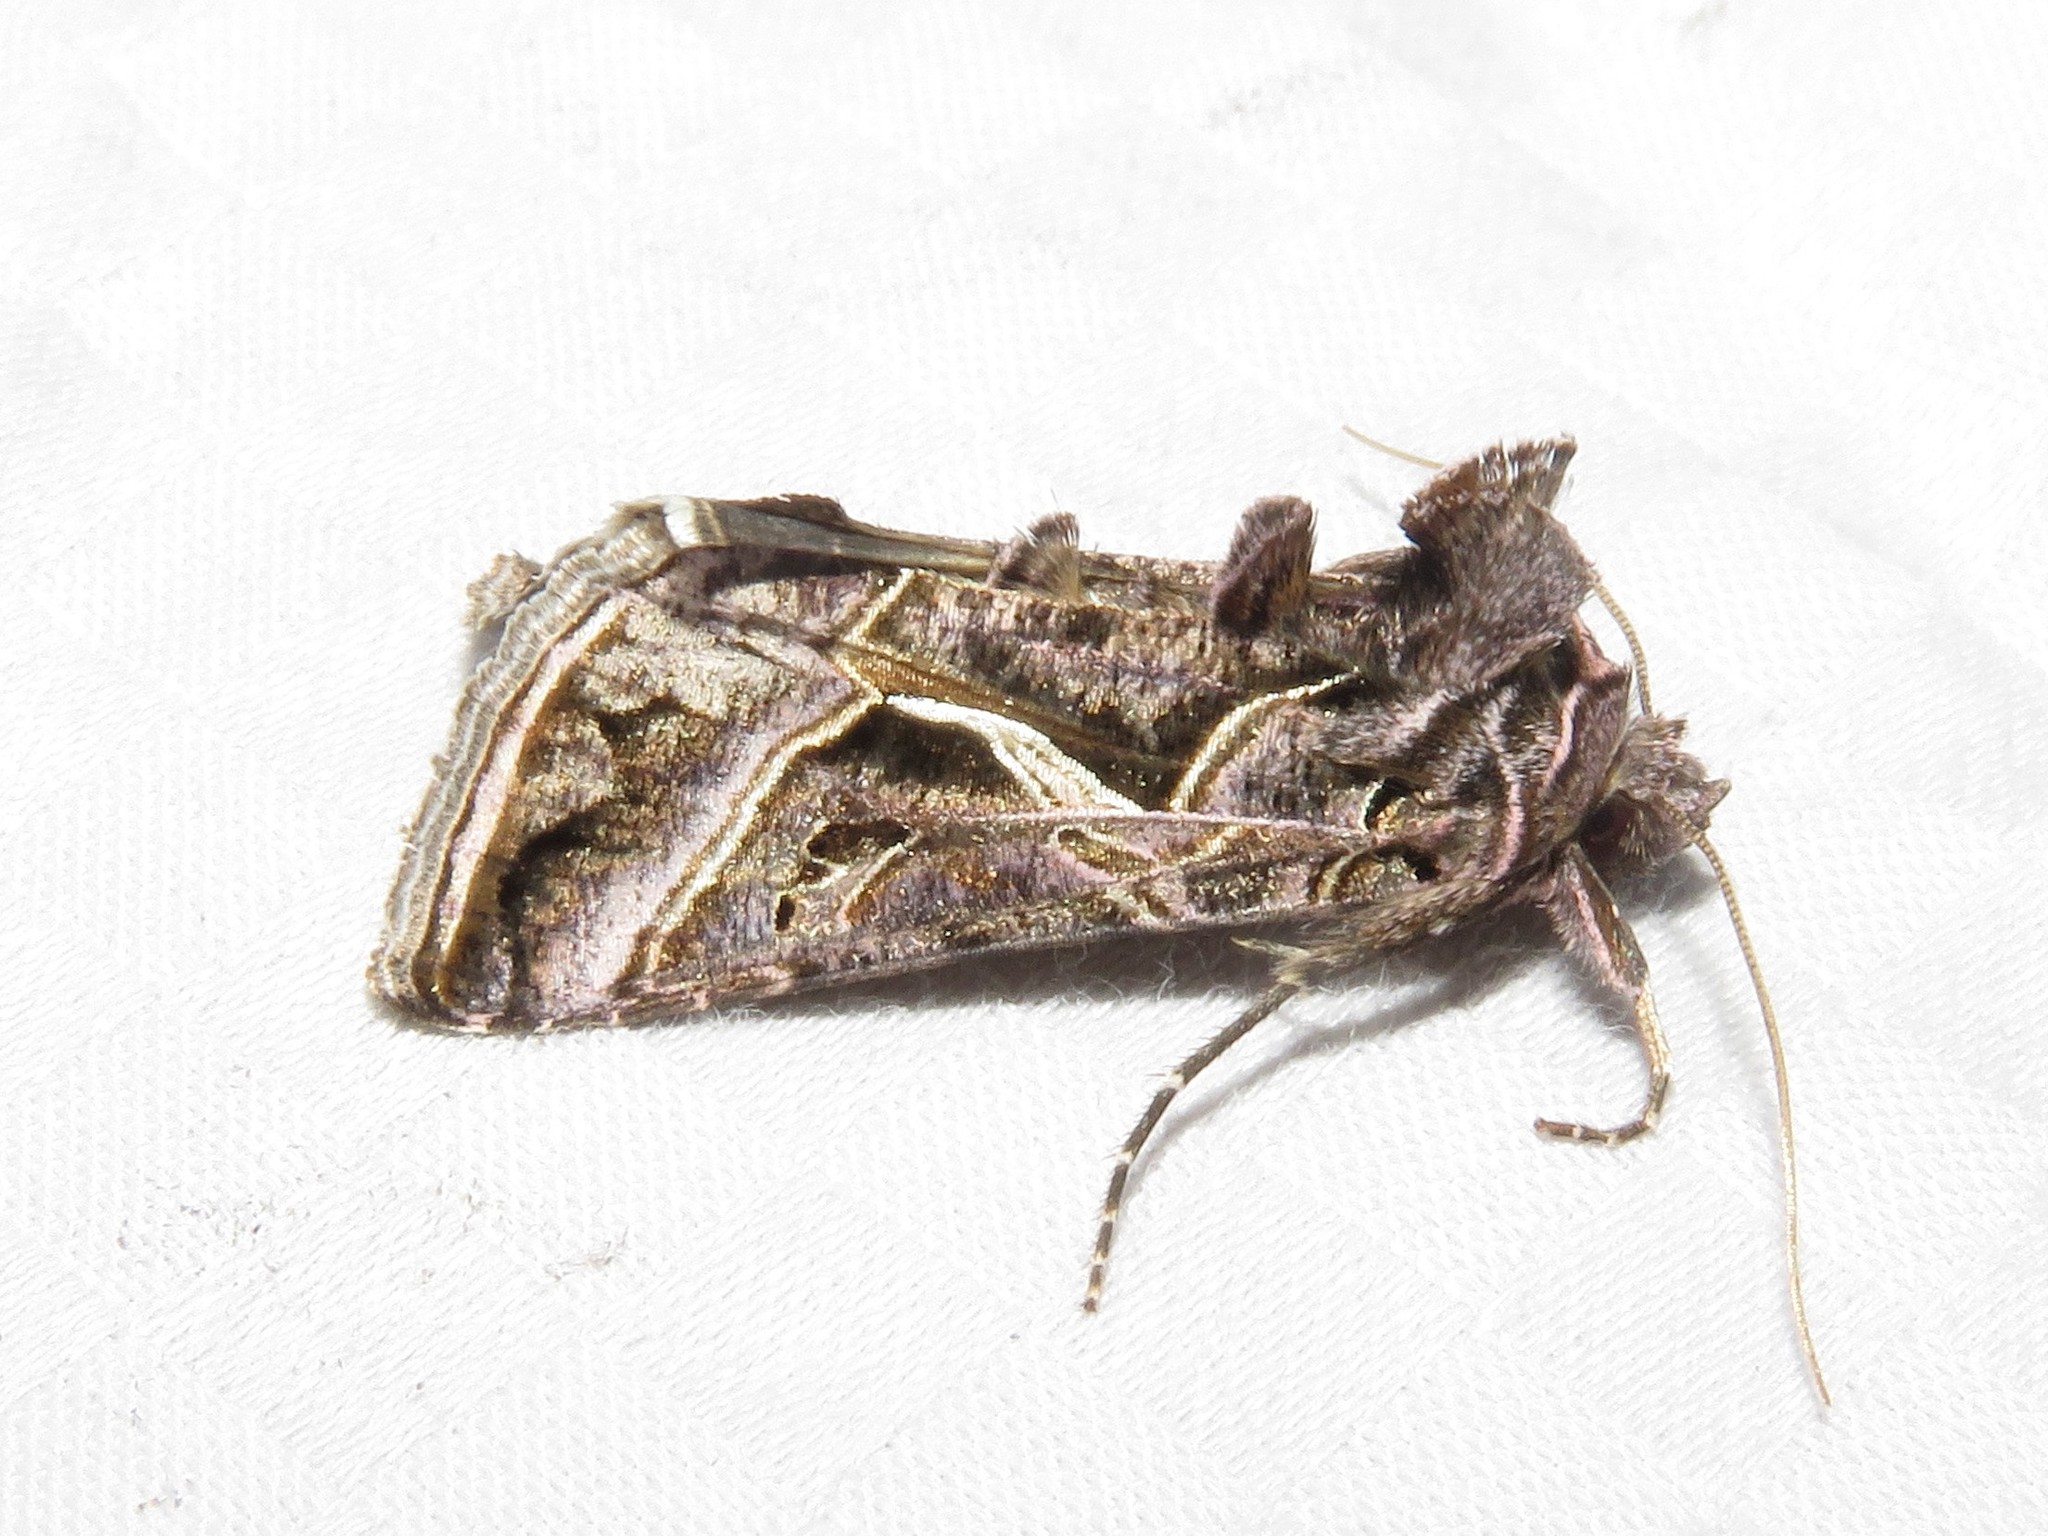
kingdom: Animalia
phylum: Arthropoda
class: Insecta
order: Lepidoptera
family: Noctuidae
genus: Autographa
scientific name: Autographa flagellum
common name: Silver whip moth
